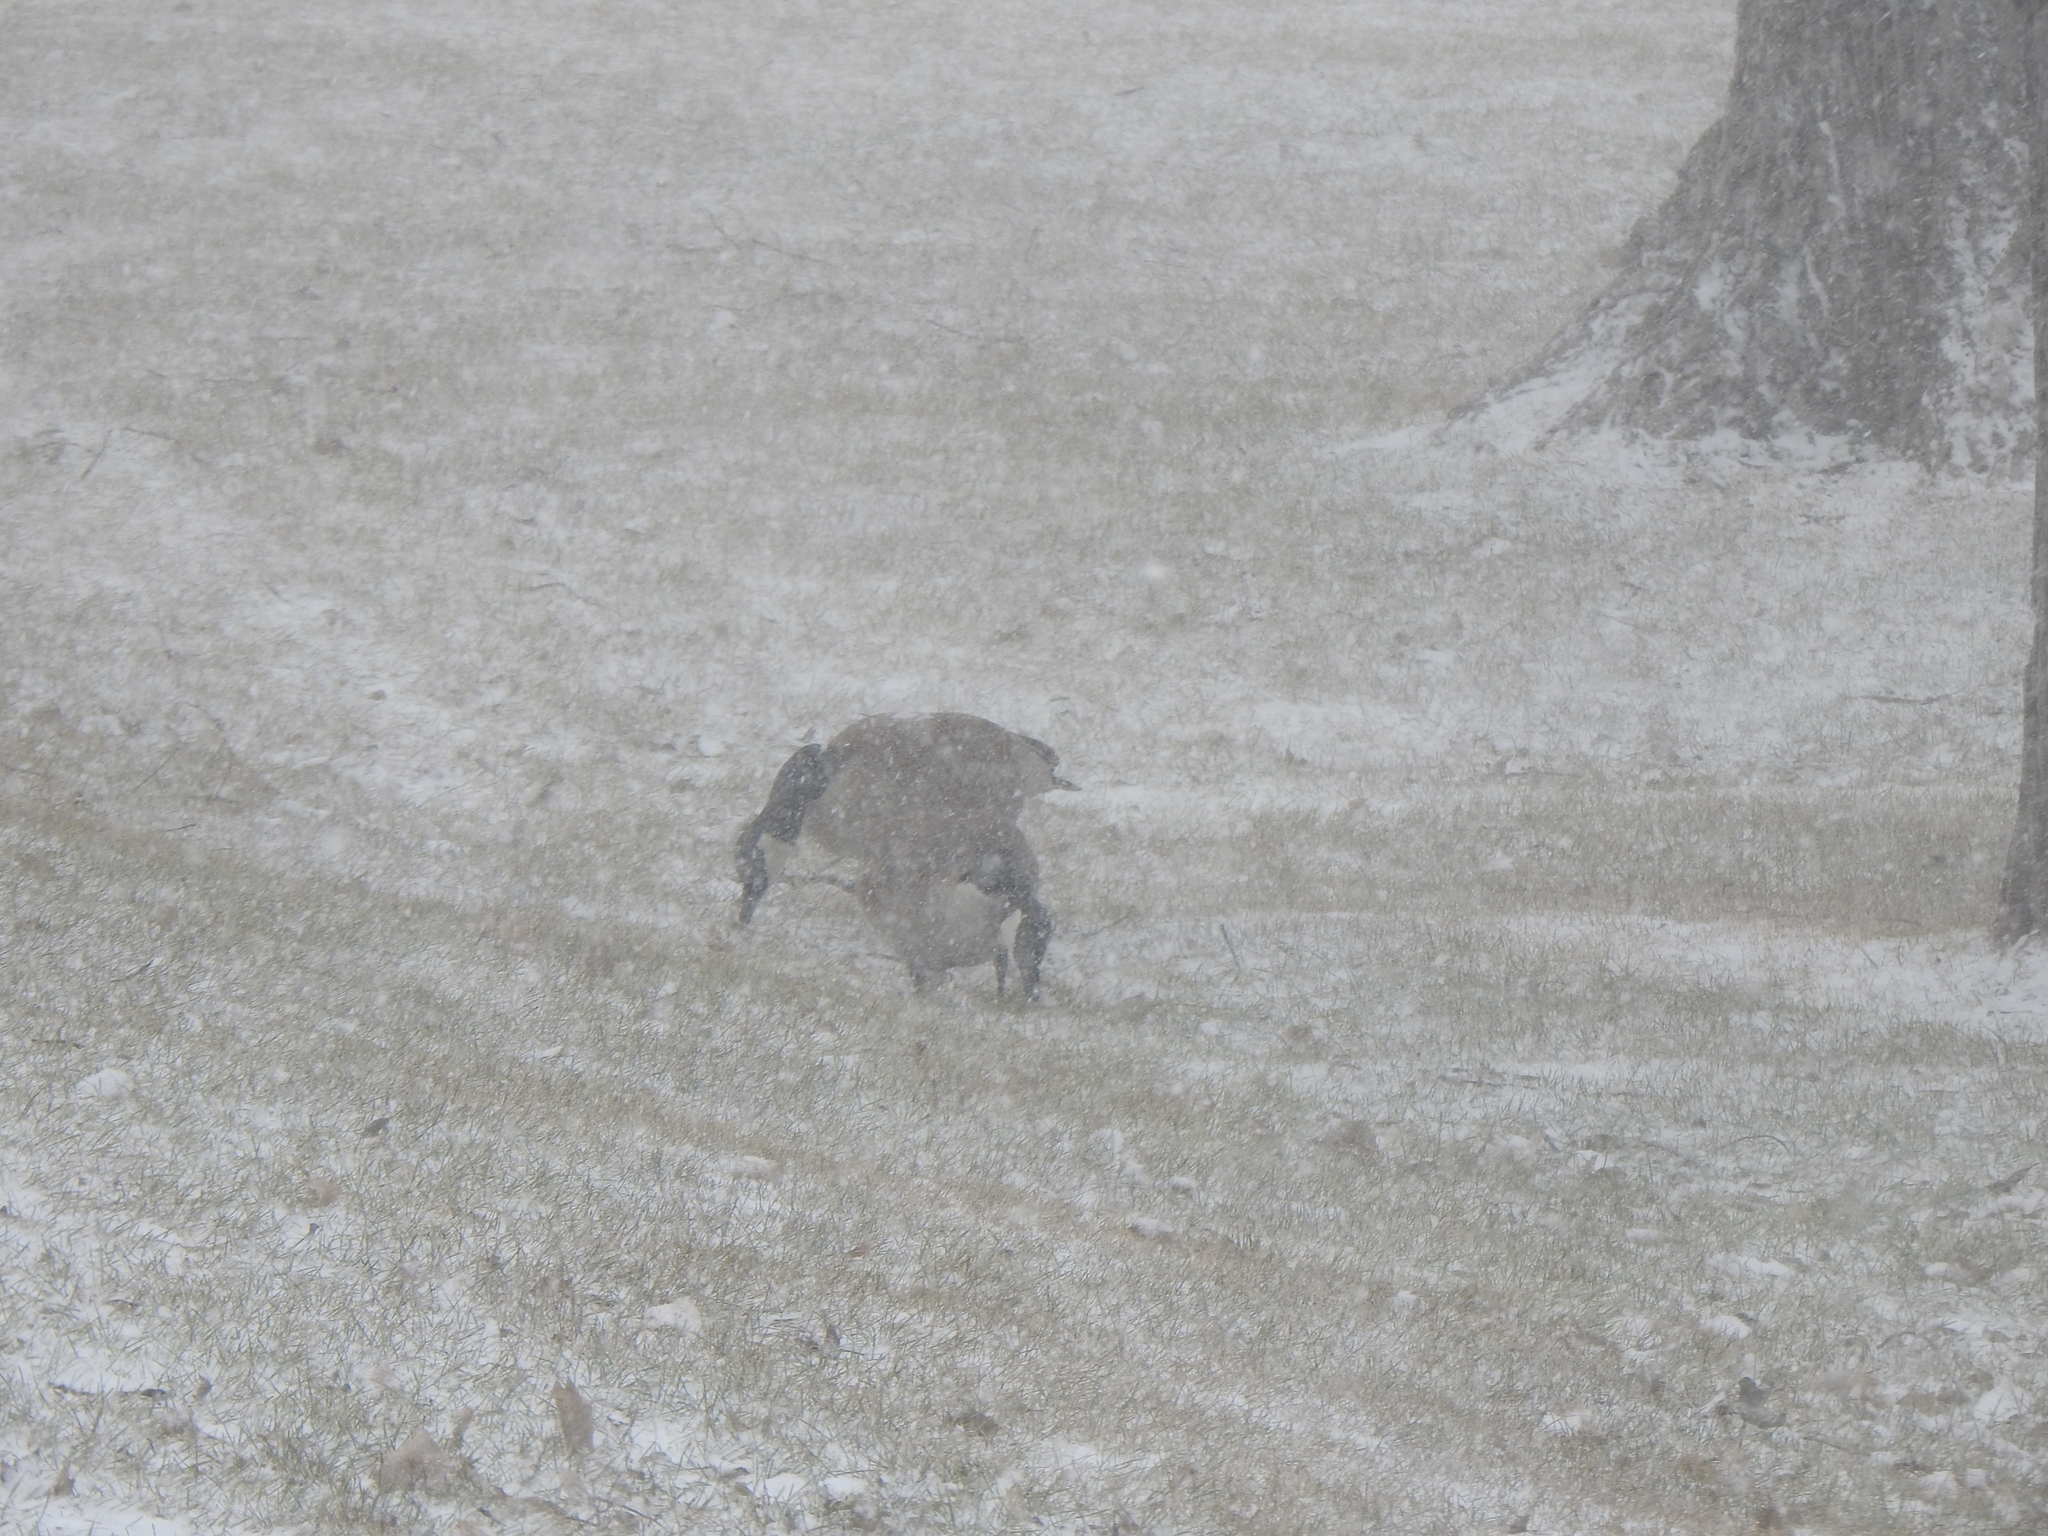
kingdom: Animalia
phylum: Chordata
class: Aves
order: Anseriformes
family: Anatidae
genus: Branta
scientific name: Branta canadensis
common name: Canada goose
